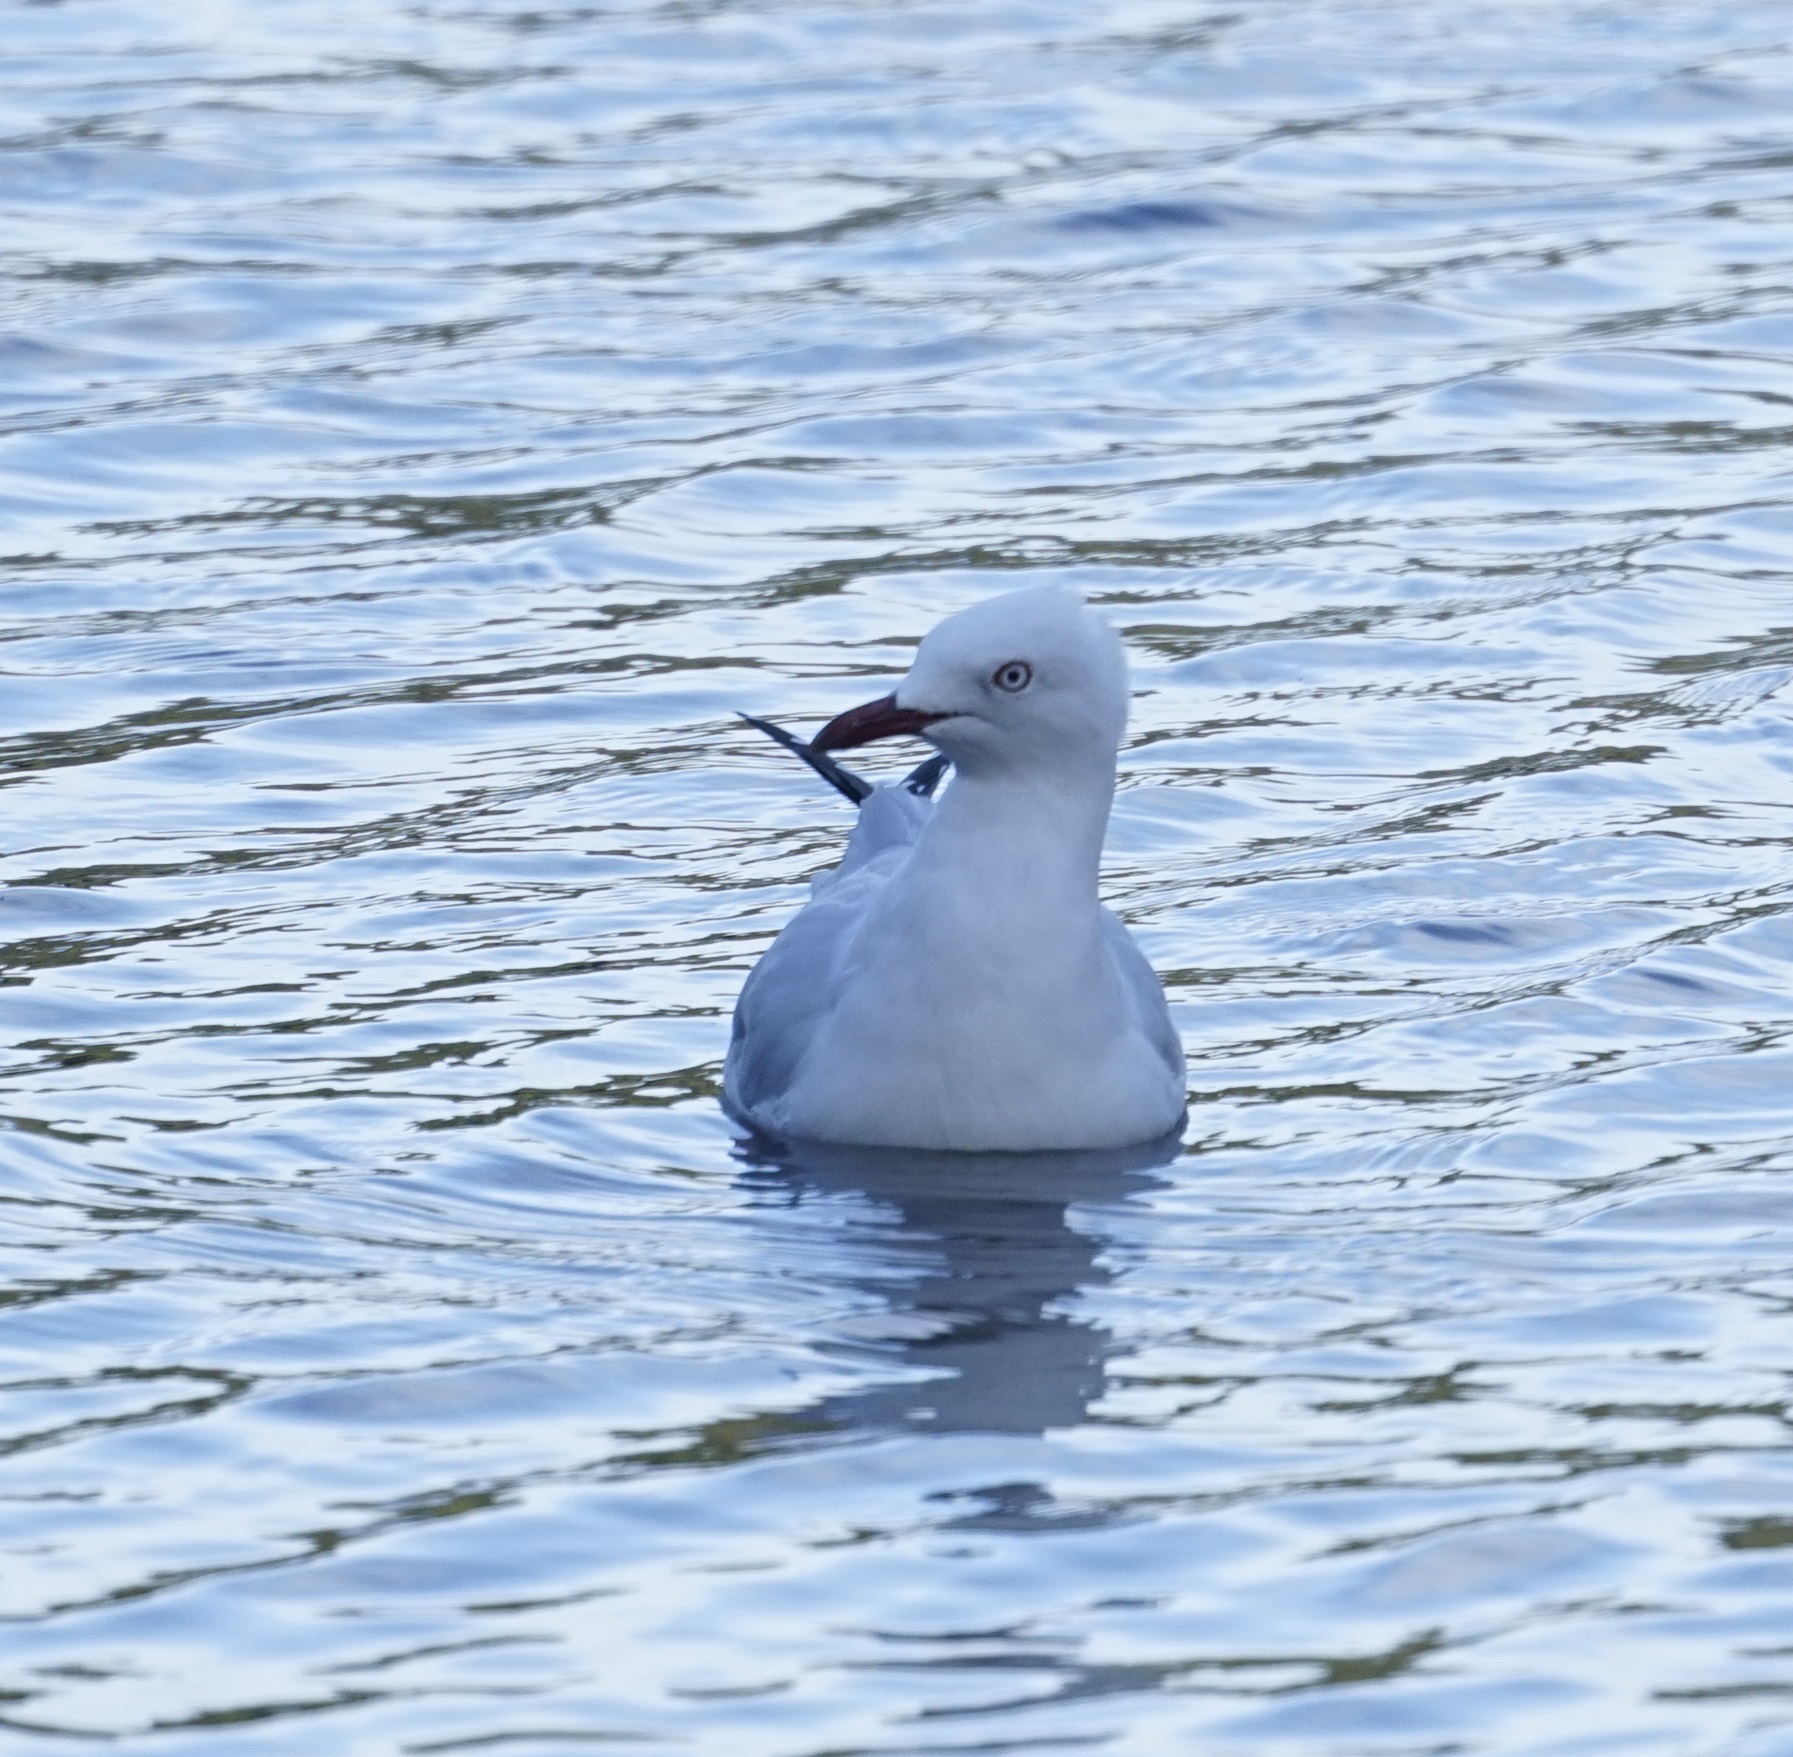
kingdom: Animalia
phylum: Chordata
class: Aves
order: Charadriiformes
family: Laridae
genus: Chroicocephalus
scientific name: Chroicocephalus novaehollandiae
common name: Silver gull
